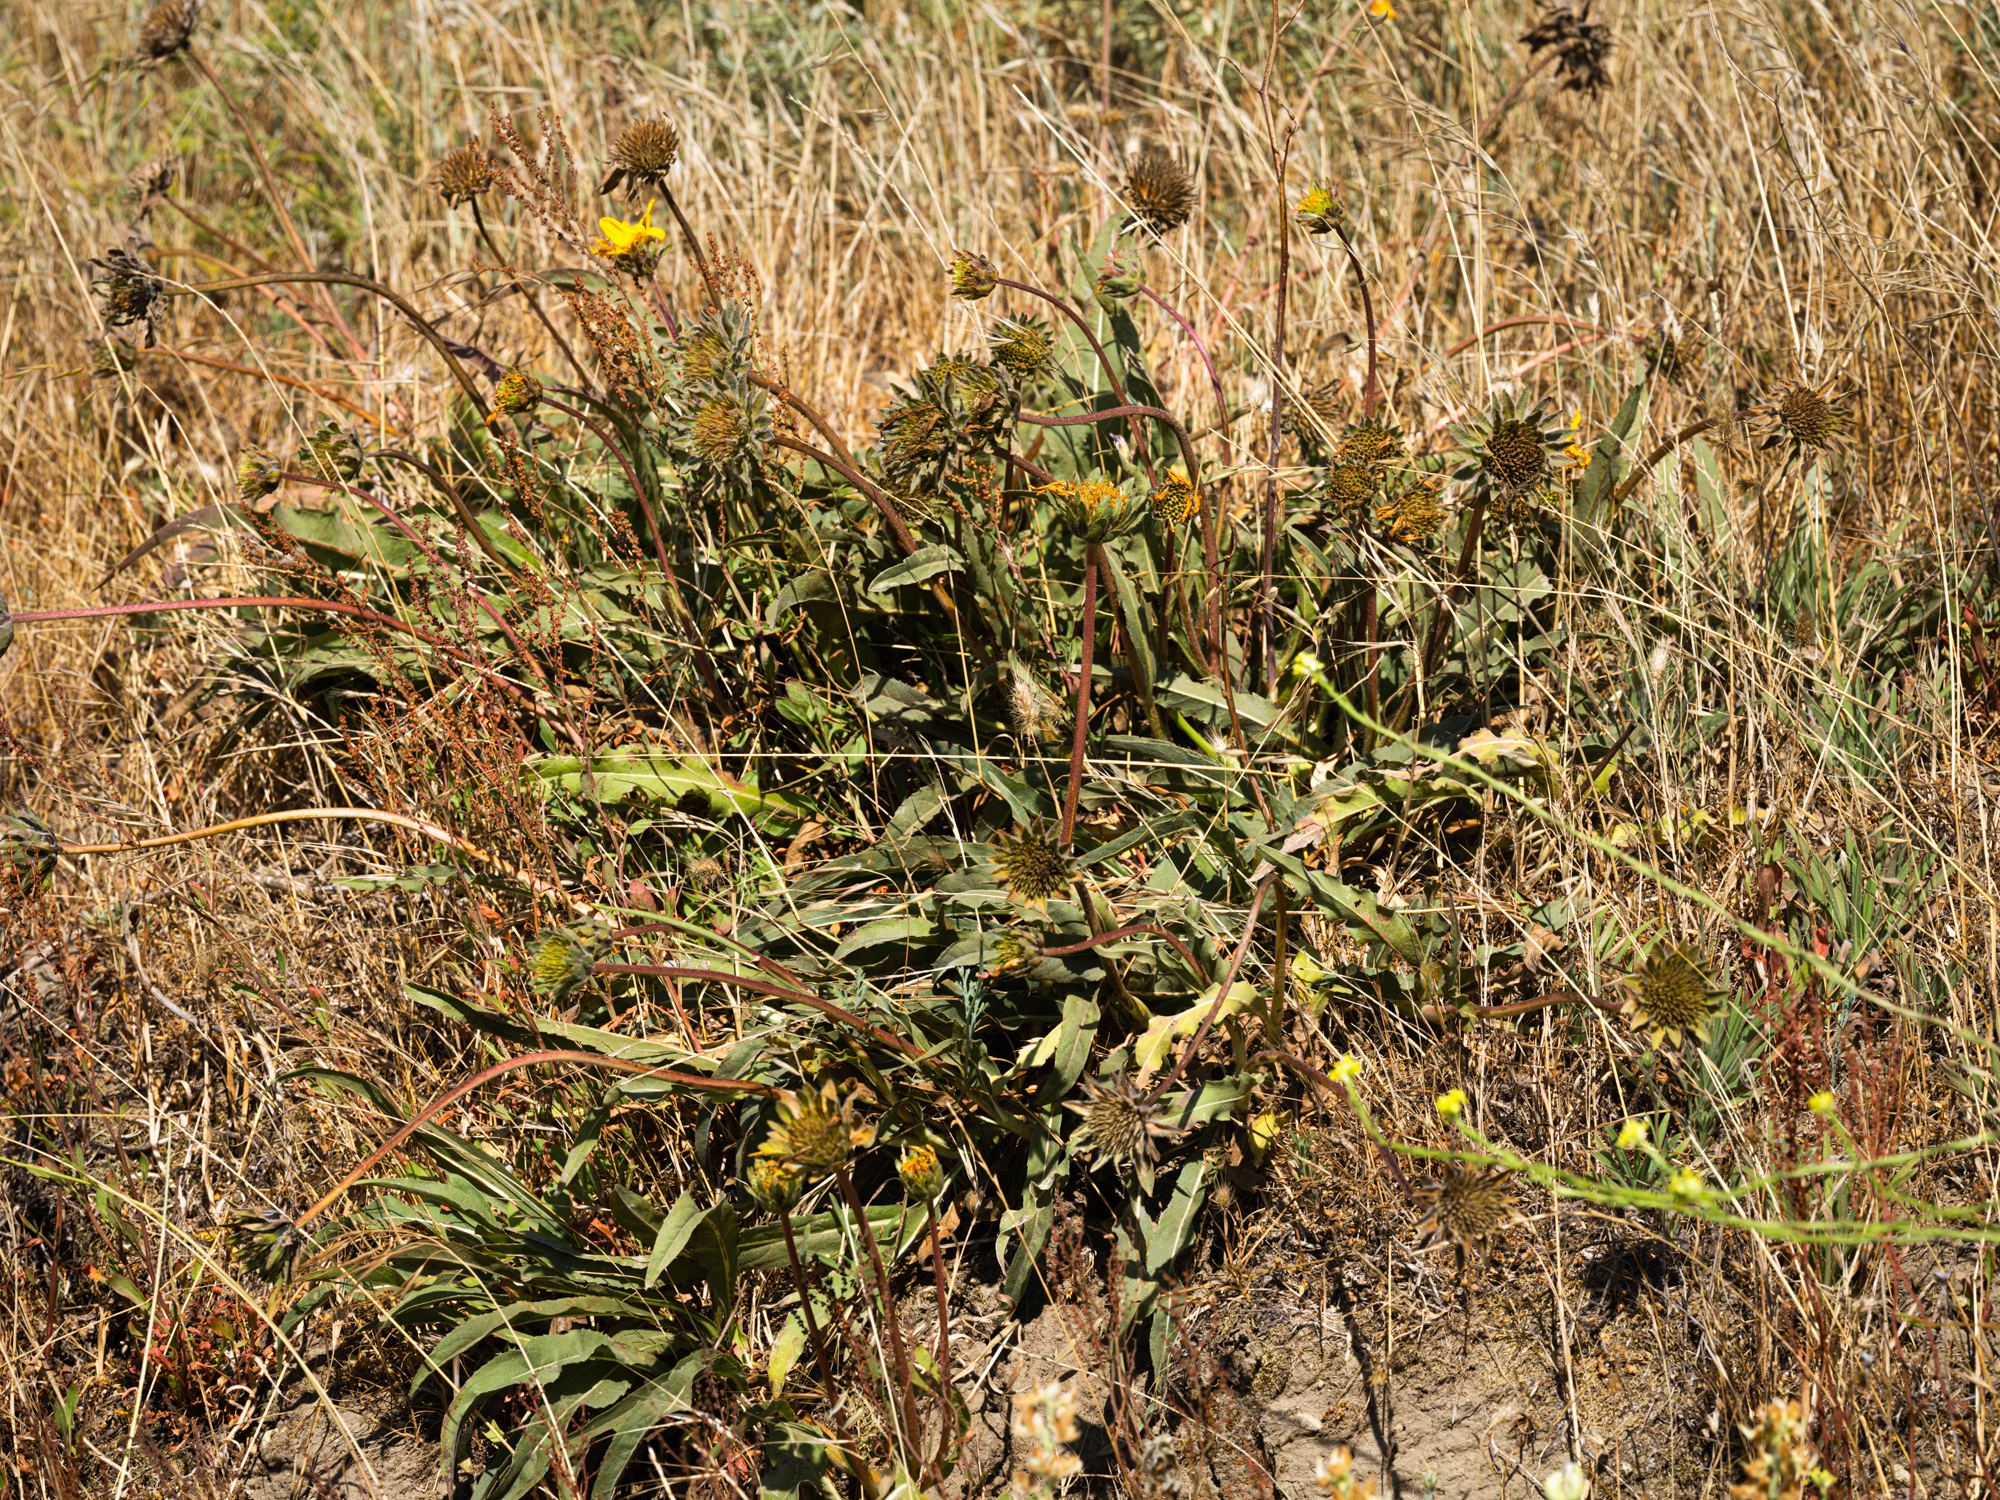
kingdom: Plantae
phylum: Tracheophyta
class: Magnoliopsida
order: Asterales
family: Asteraceae
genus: Wyethia
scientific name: Wyethia angustifolia
